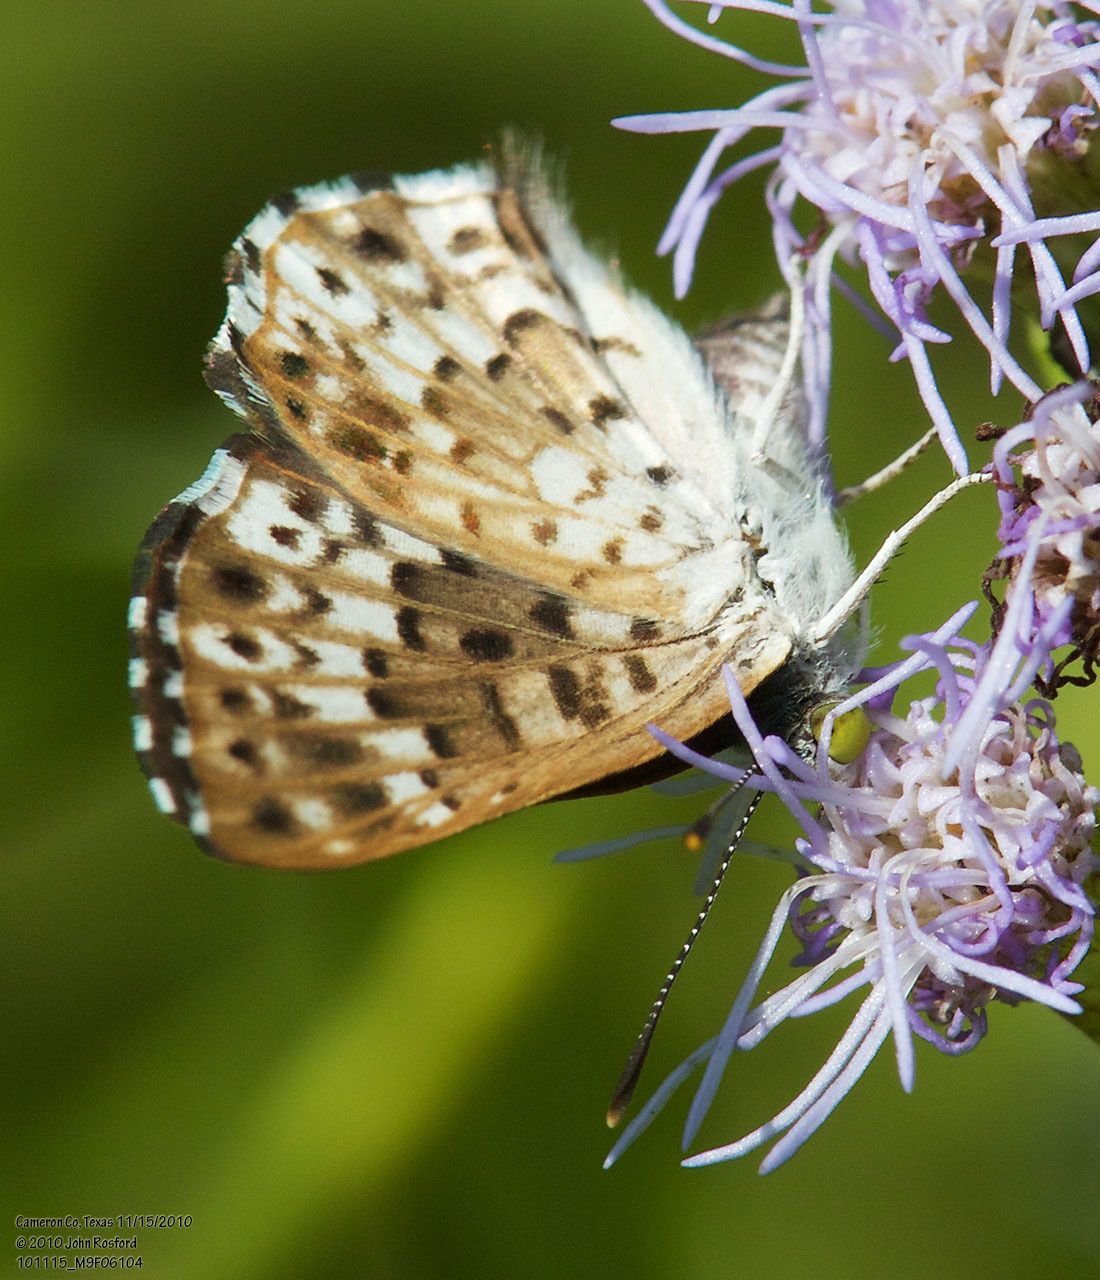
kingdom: Animalia
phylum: Arthropoda
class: Insecta
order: Lepidoptera
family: Riodinidae
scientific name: Riodinidae
